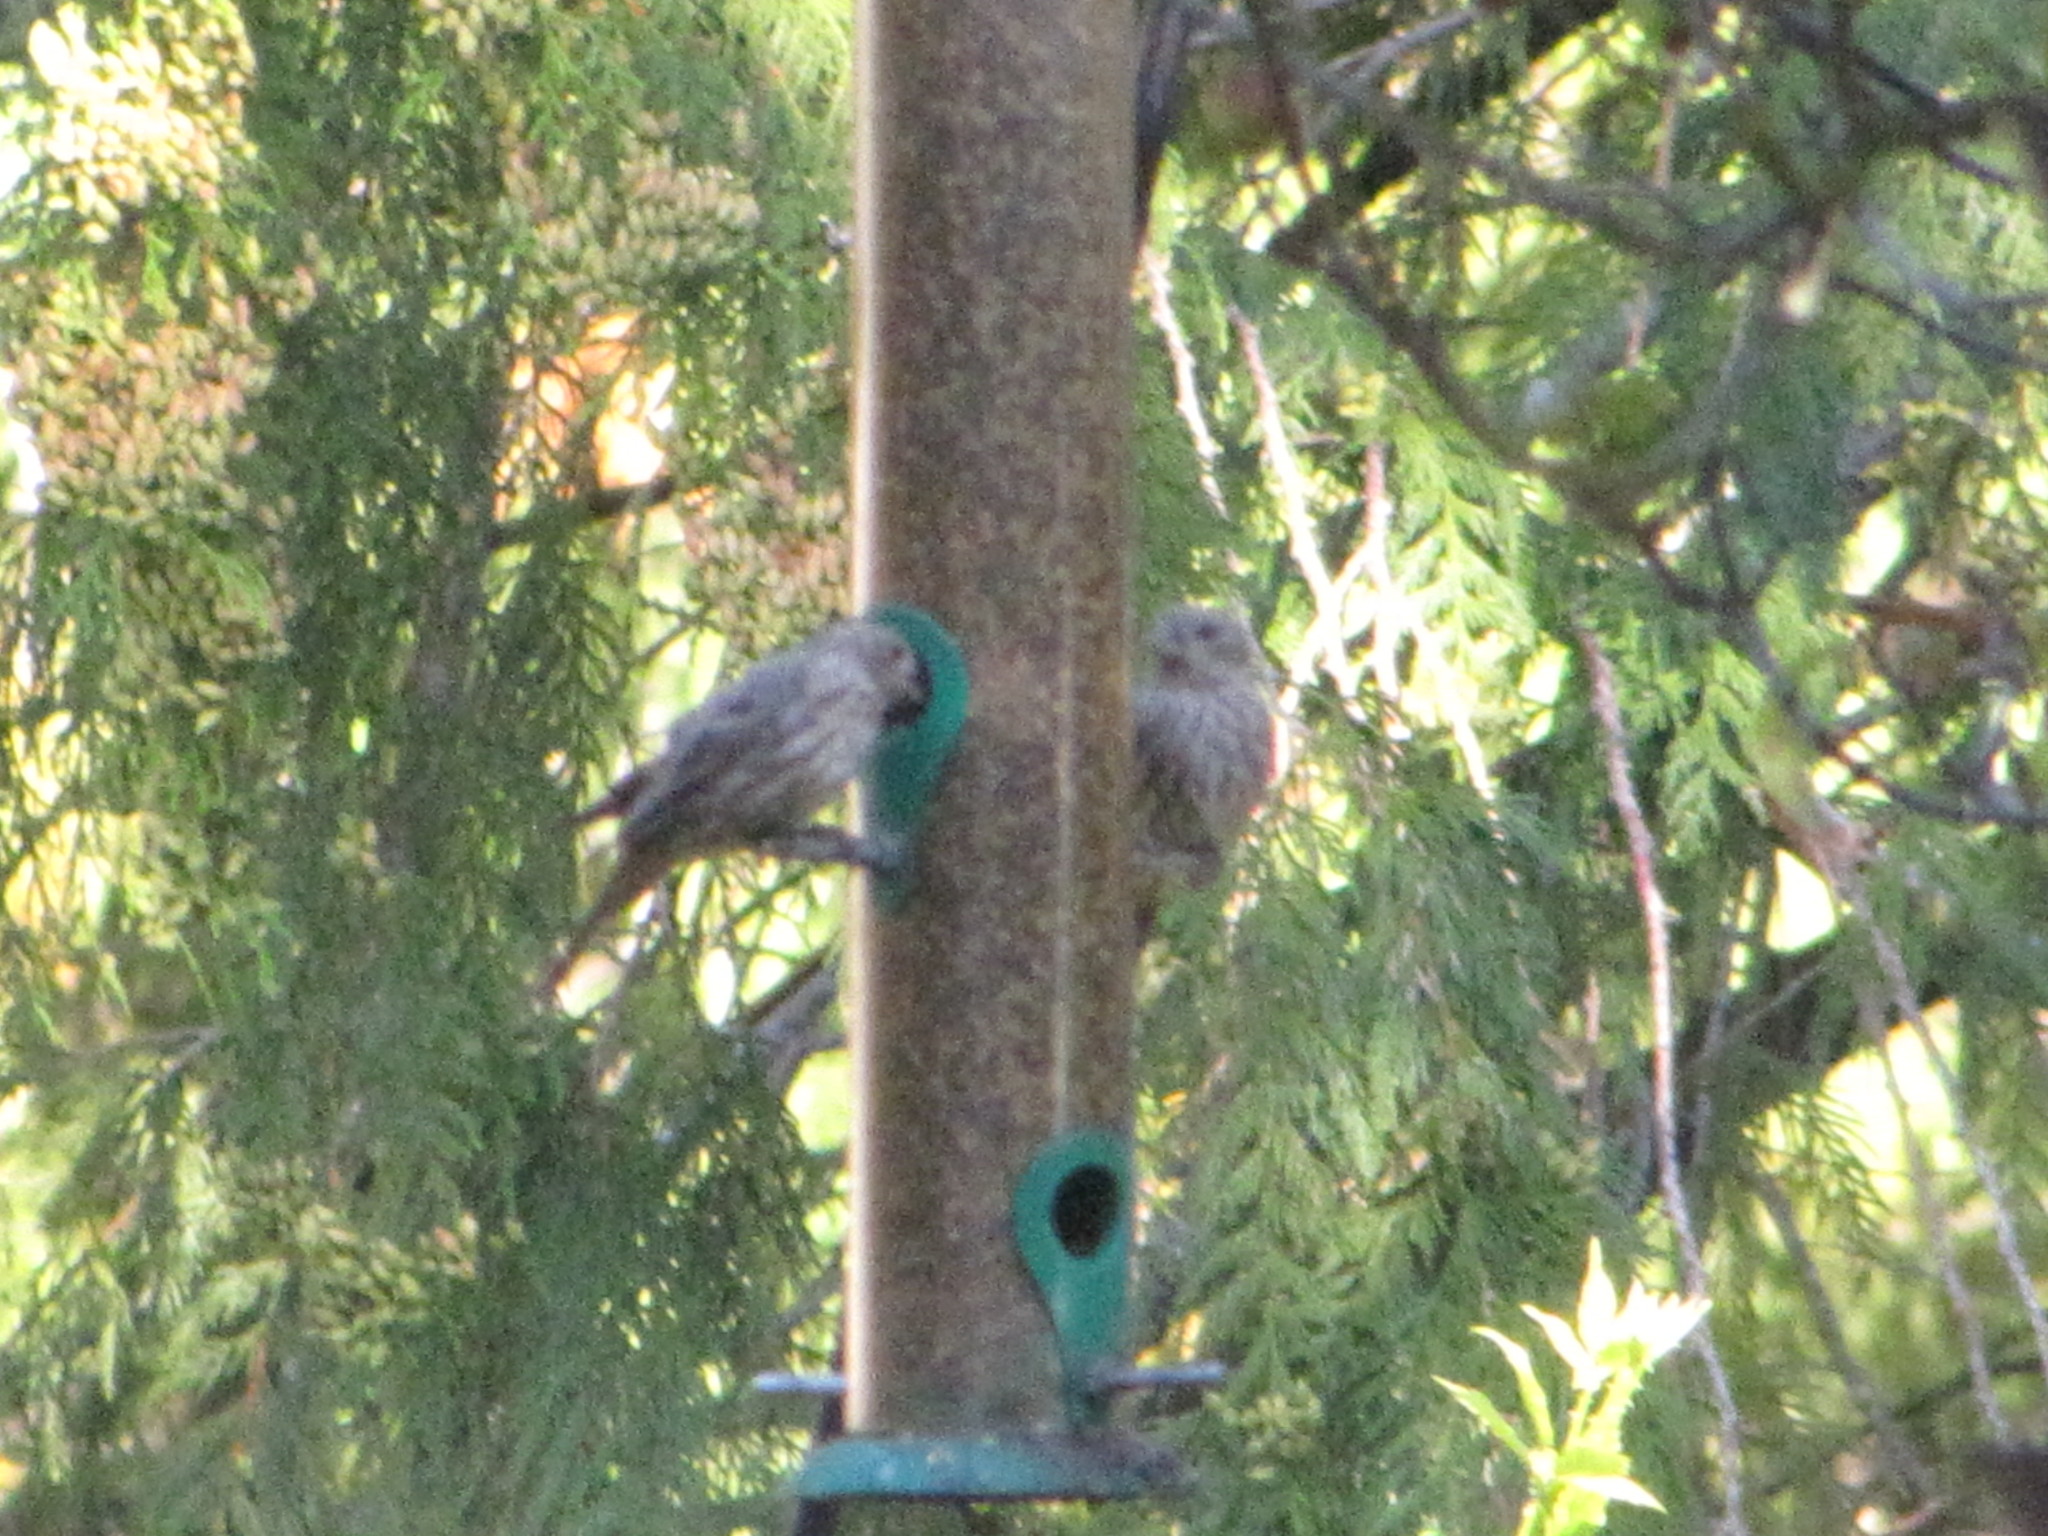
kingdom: Animalia
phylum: Chordata
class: Aves
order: Passeriformes
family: Fringillidae
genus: Haemorhous
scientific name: Haemorhous mexicanus
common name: House finch
